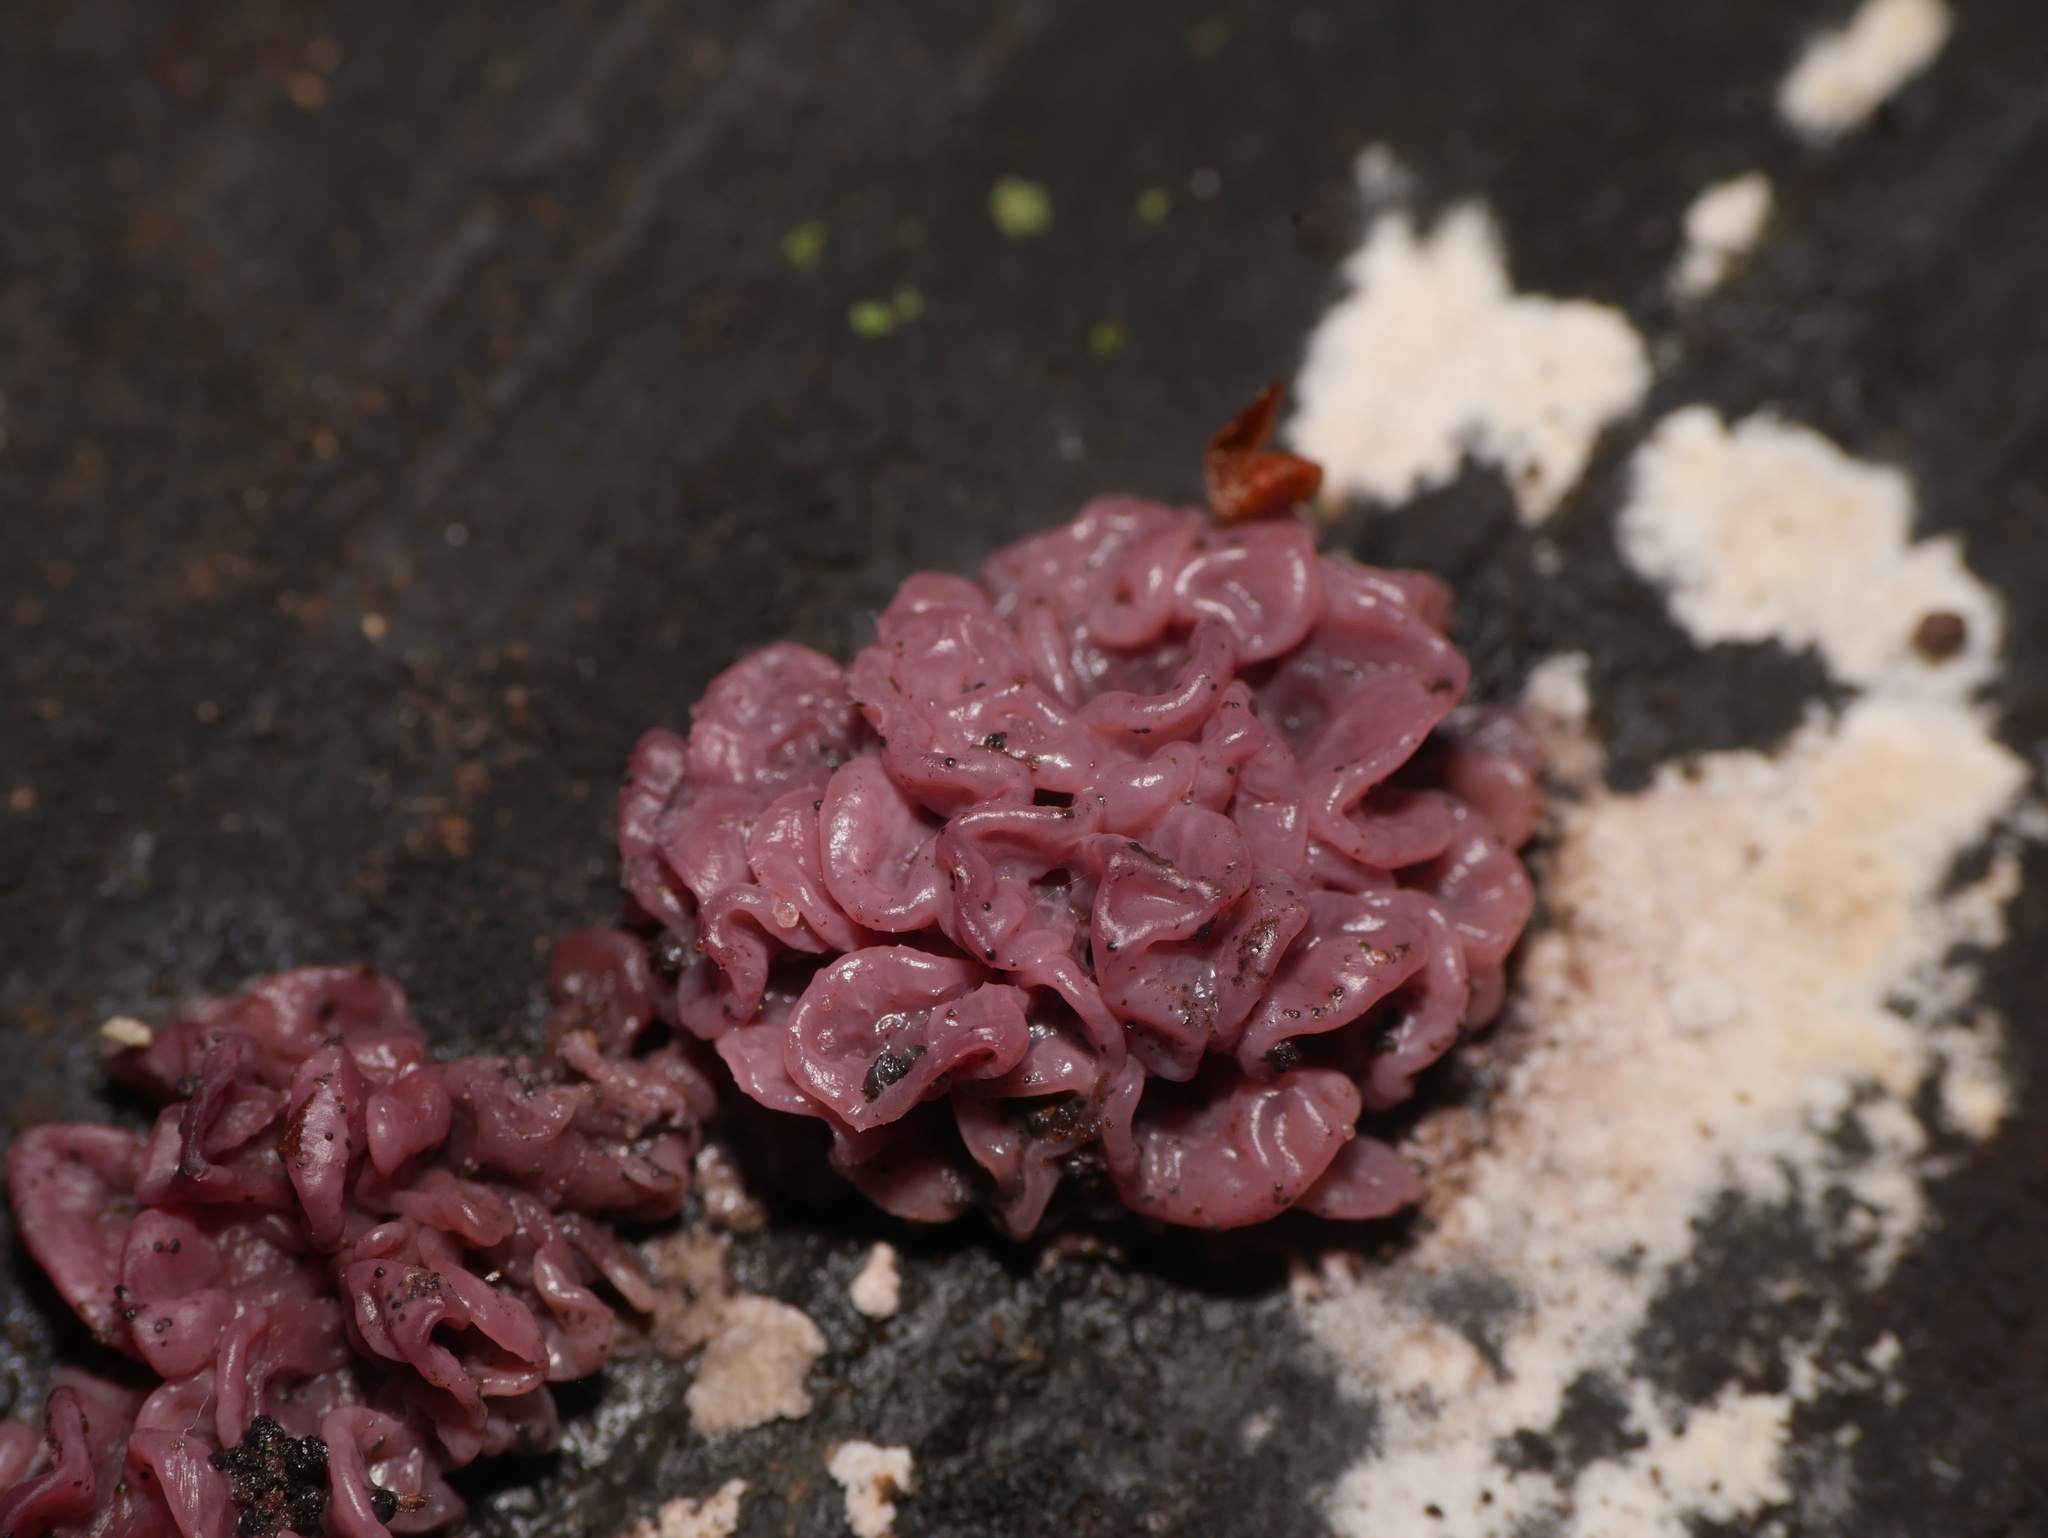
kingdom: Fungi
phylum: Ascomycota
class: Leotiomycetes
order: Helotiales
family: Gelatinodiscaceae
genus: Ascocoryne
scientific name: Ascocoryne sarcoides
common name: Purple jellydisc
